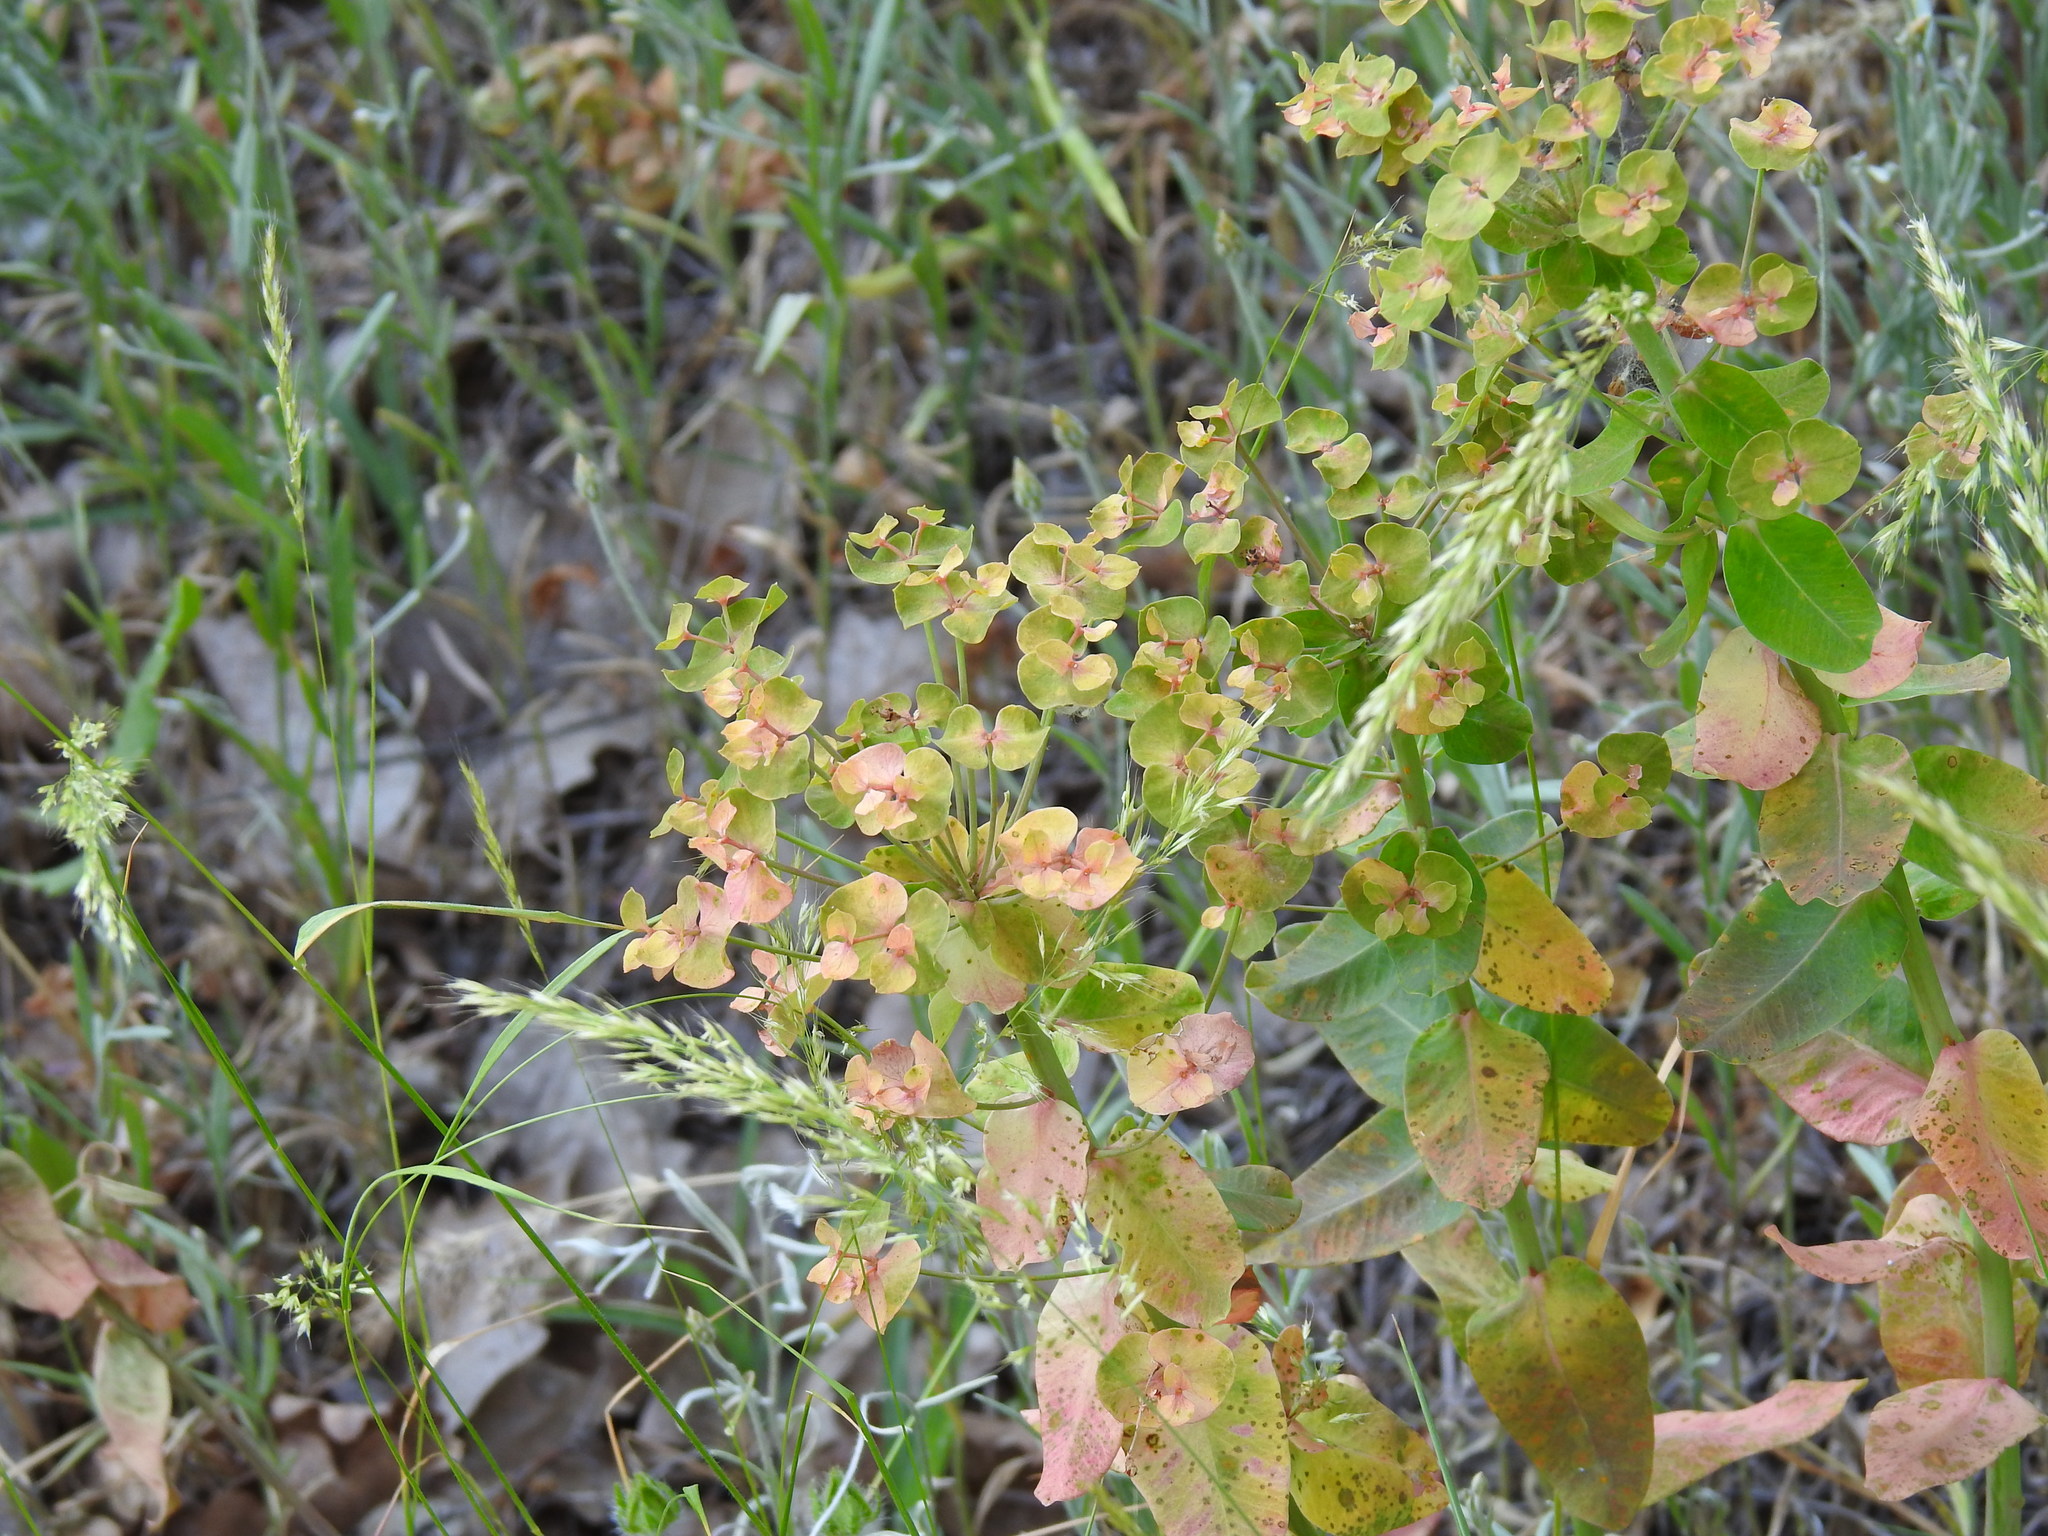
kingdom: Plantae
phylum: Tracheophyta
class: Magnoliopsida
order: Malpighiales
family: Euphorbiaceae
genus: Euphorbia
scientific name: Euphorbia iberica
